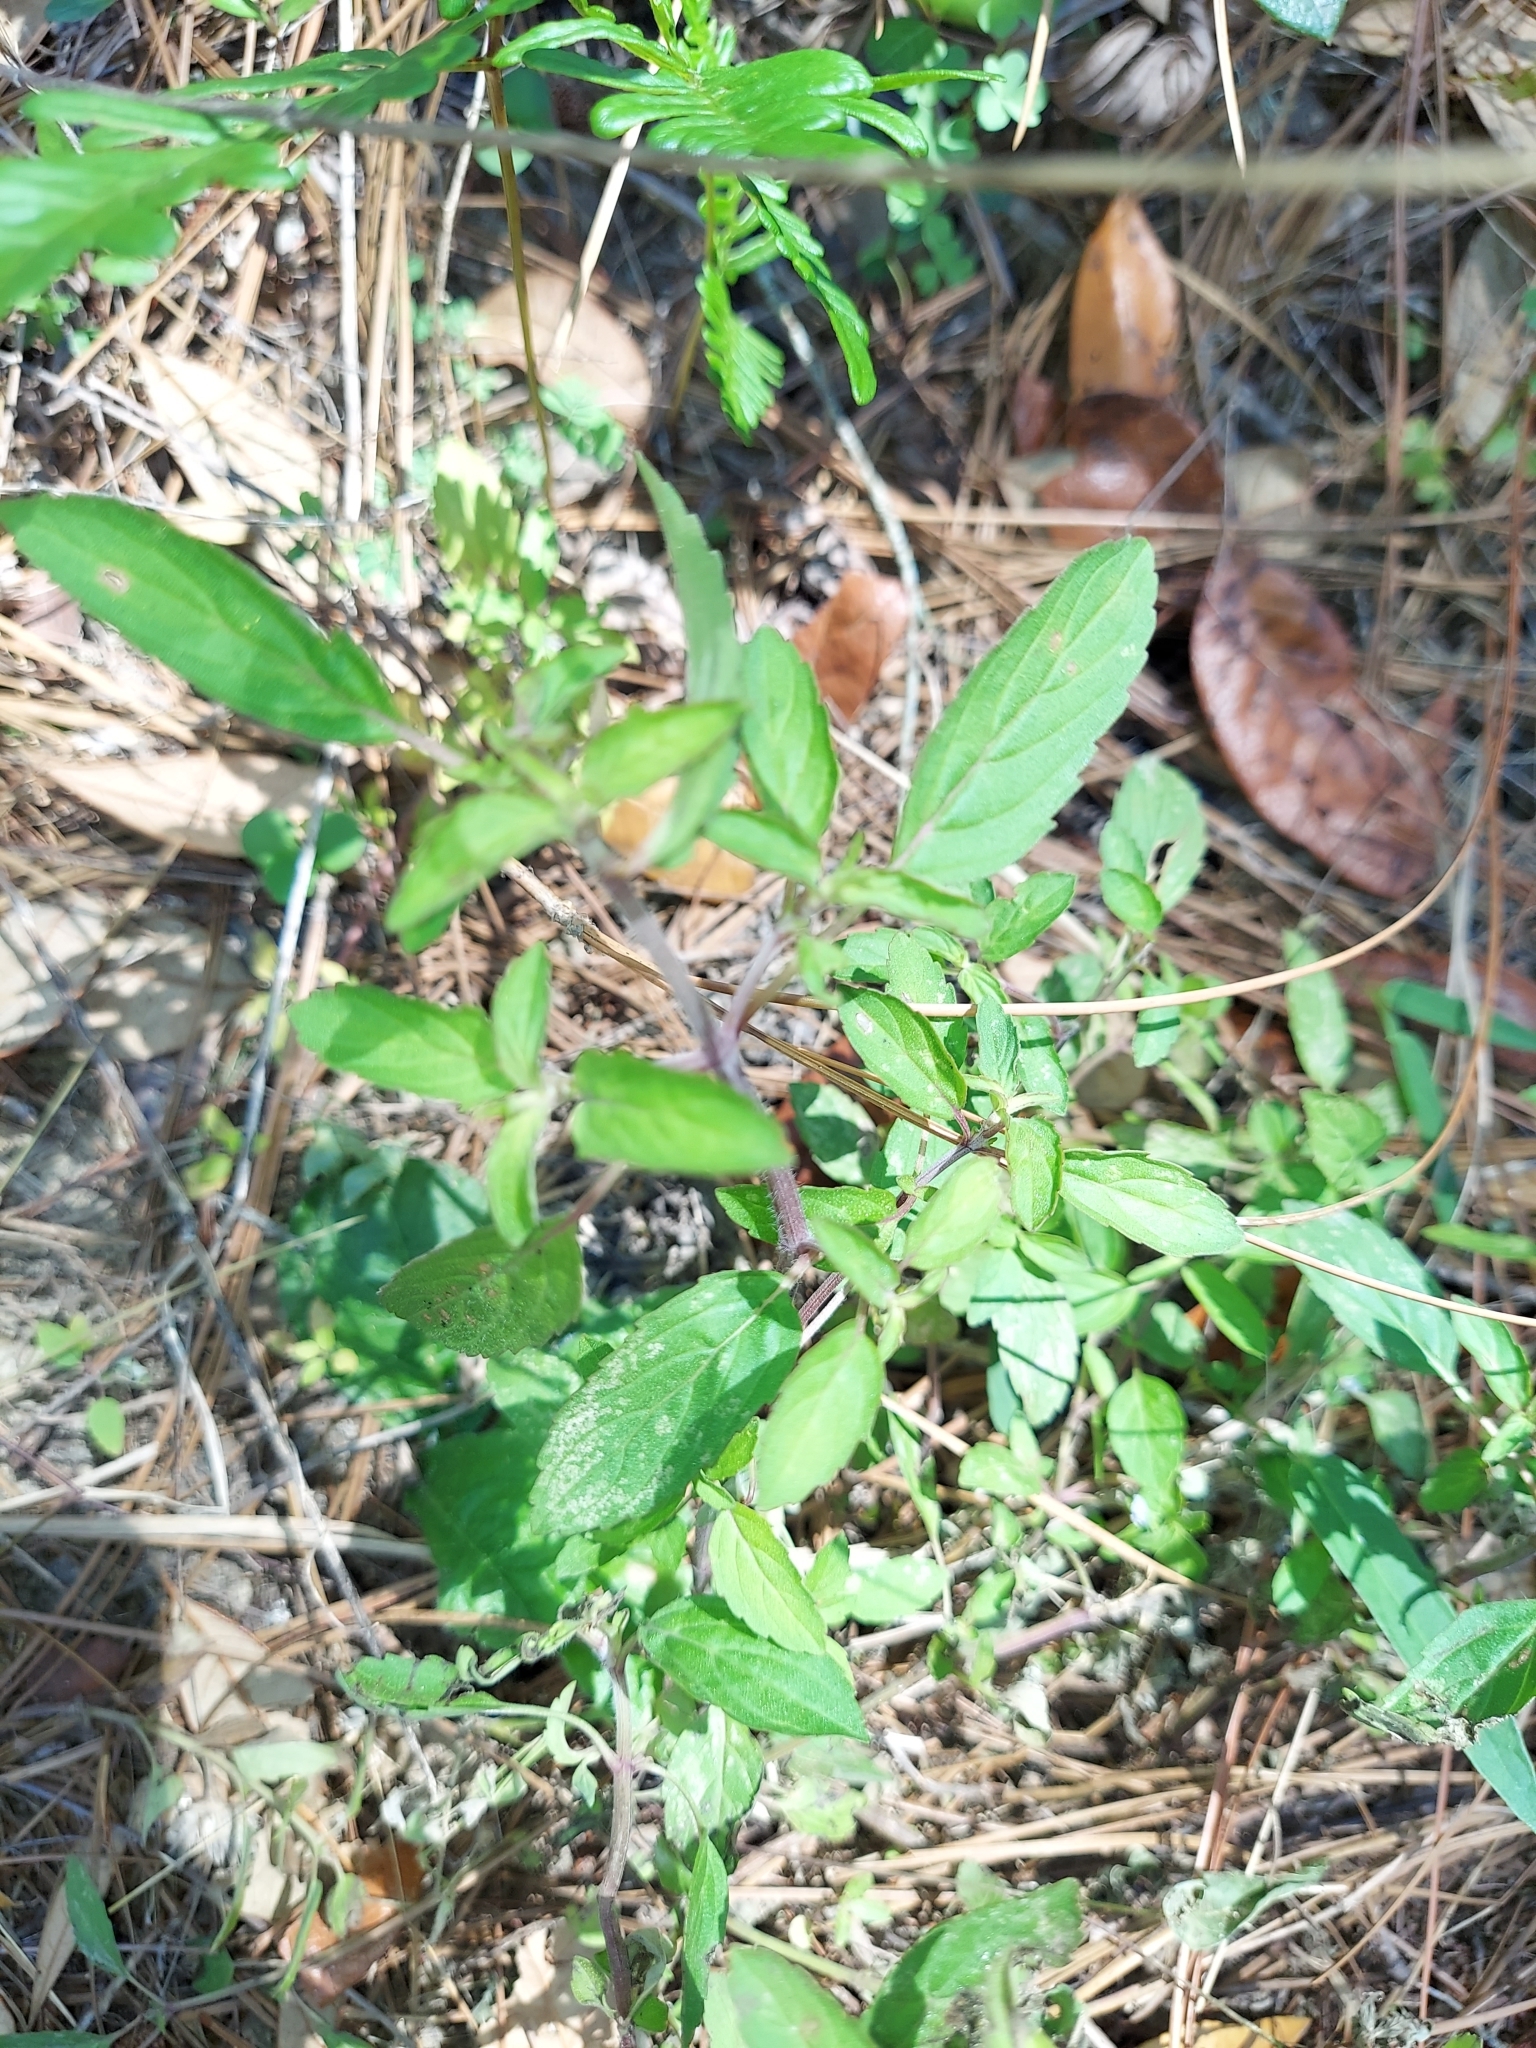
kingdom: Plantae
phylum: Tracheophyta
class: Magnoliopsida
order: Lamiales
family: Lamiaceae
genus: Monarda
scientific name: Monarda punctata
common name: Dotted monarda
